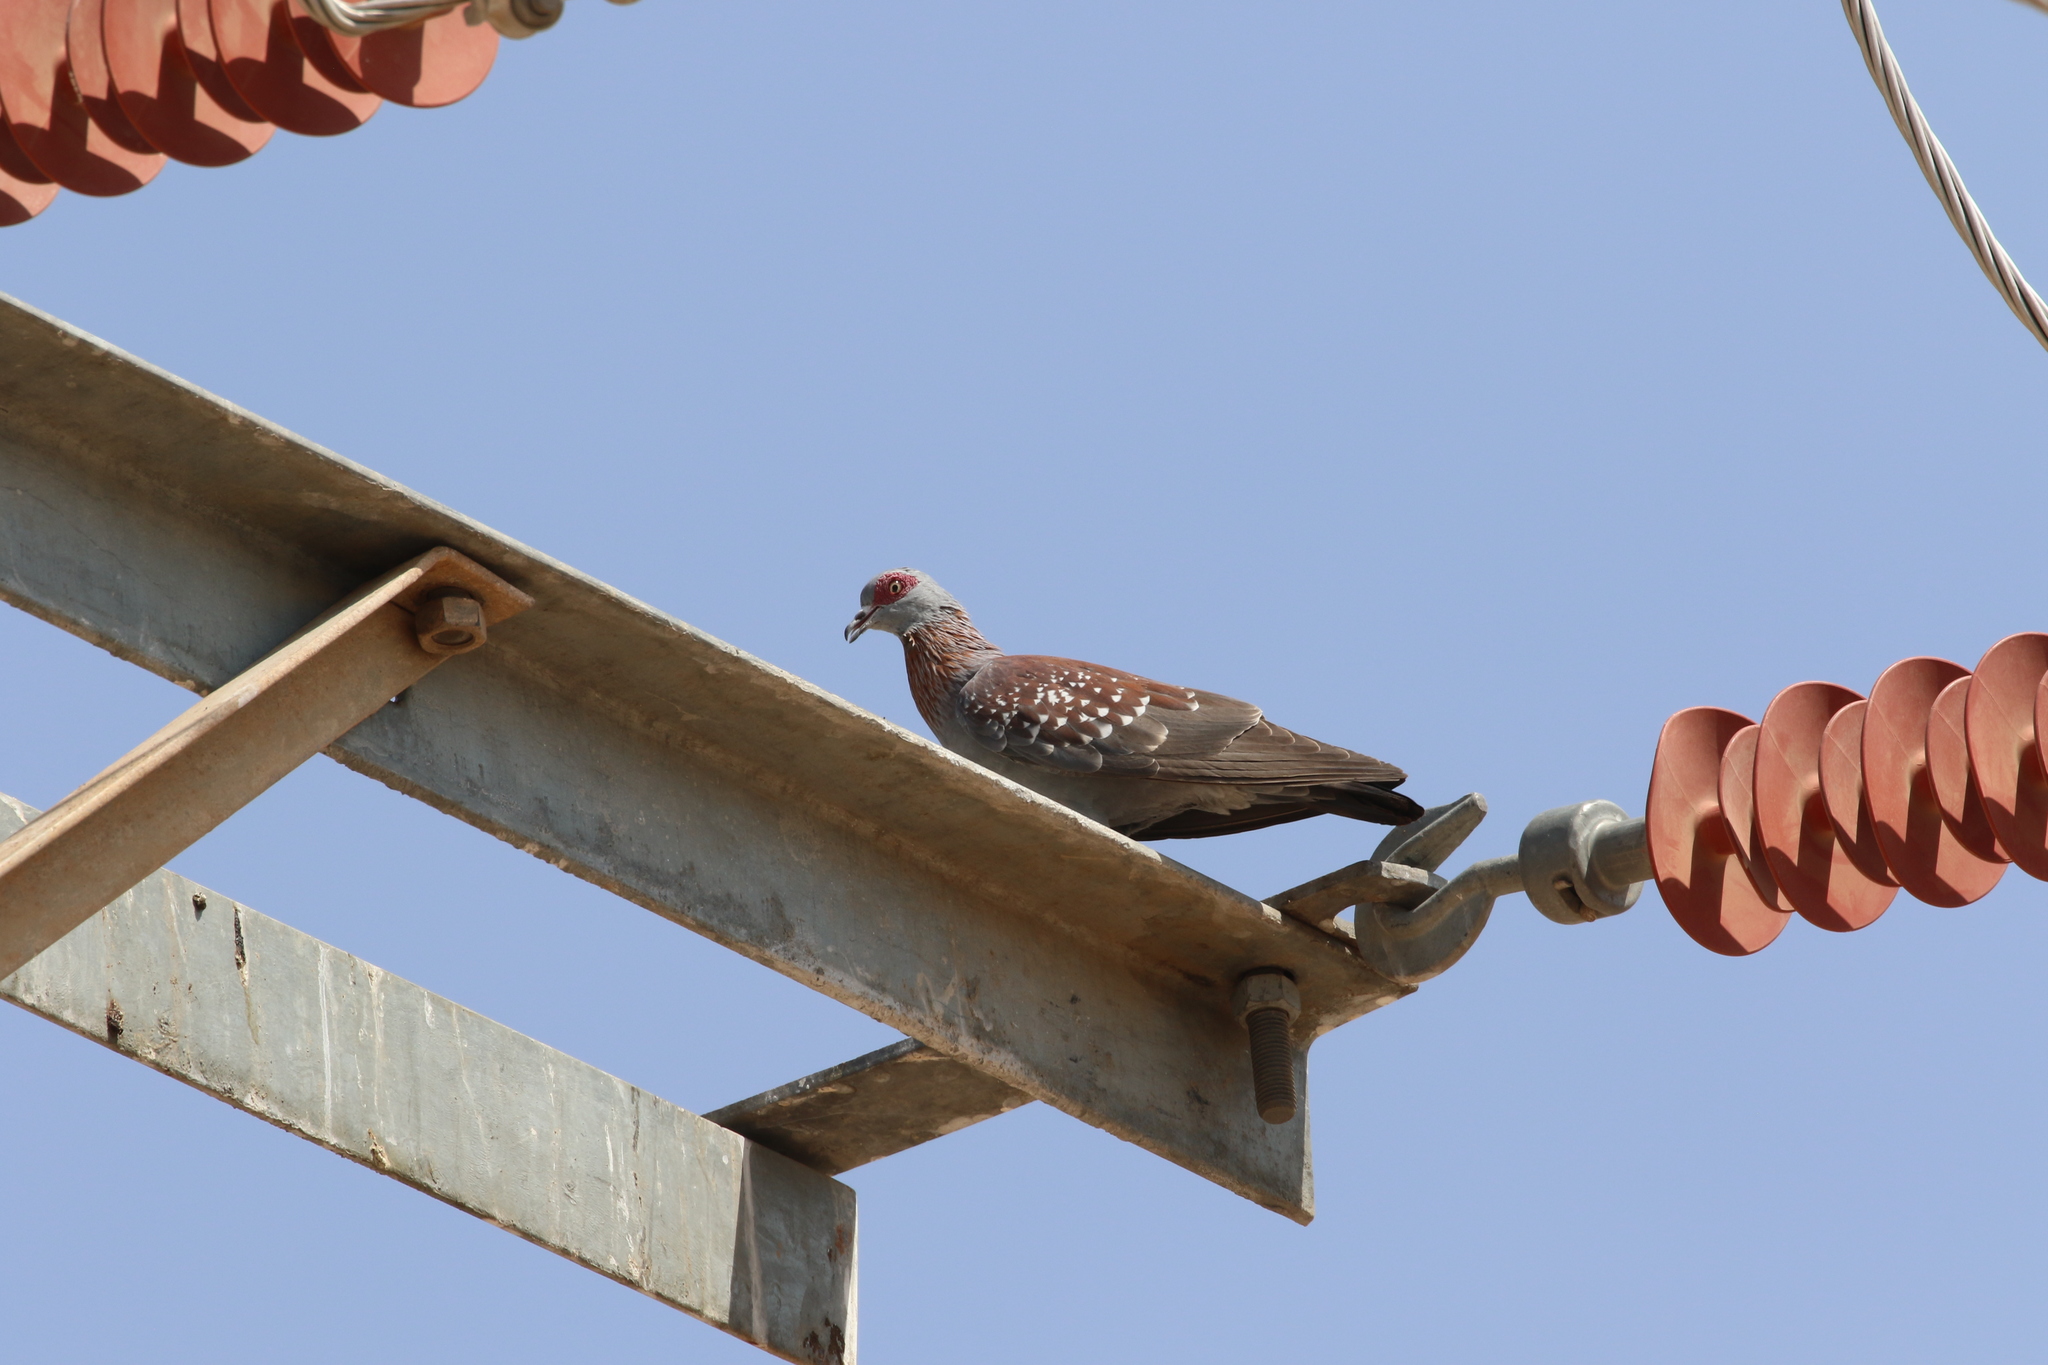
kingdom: Animalia
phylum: Chordata
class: Aves
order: Columbiformes
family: Columbidae
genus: Columba
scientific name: Columba guinea
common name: Speckled pigeon
